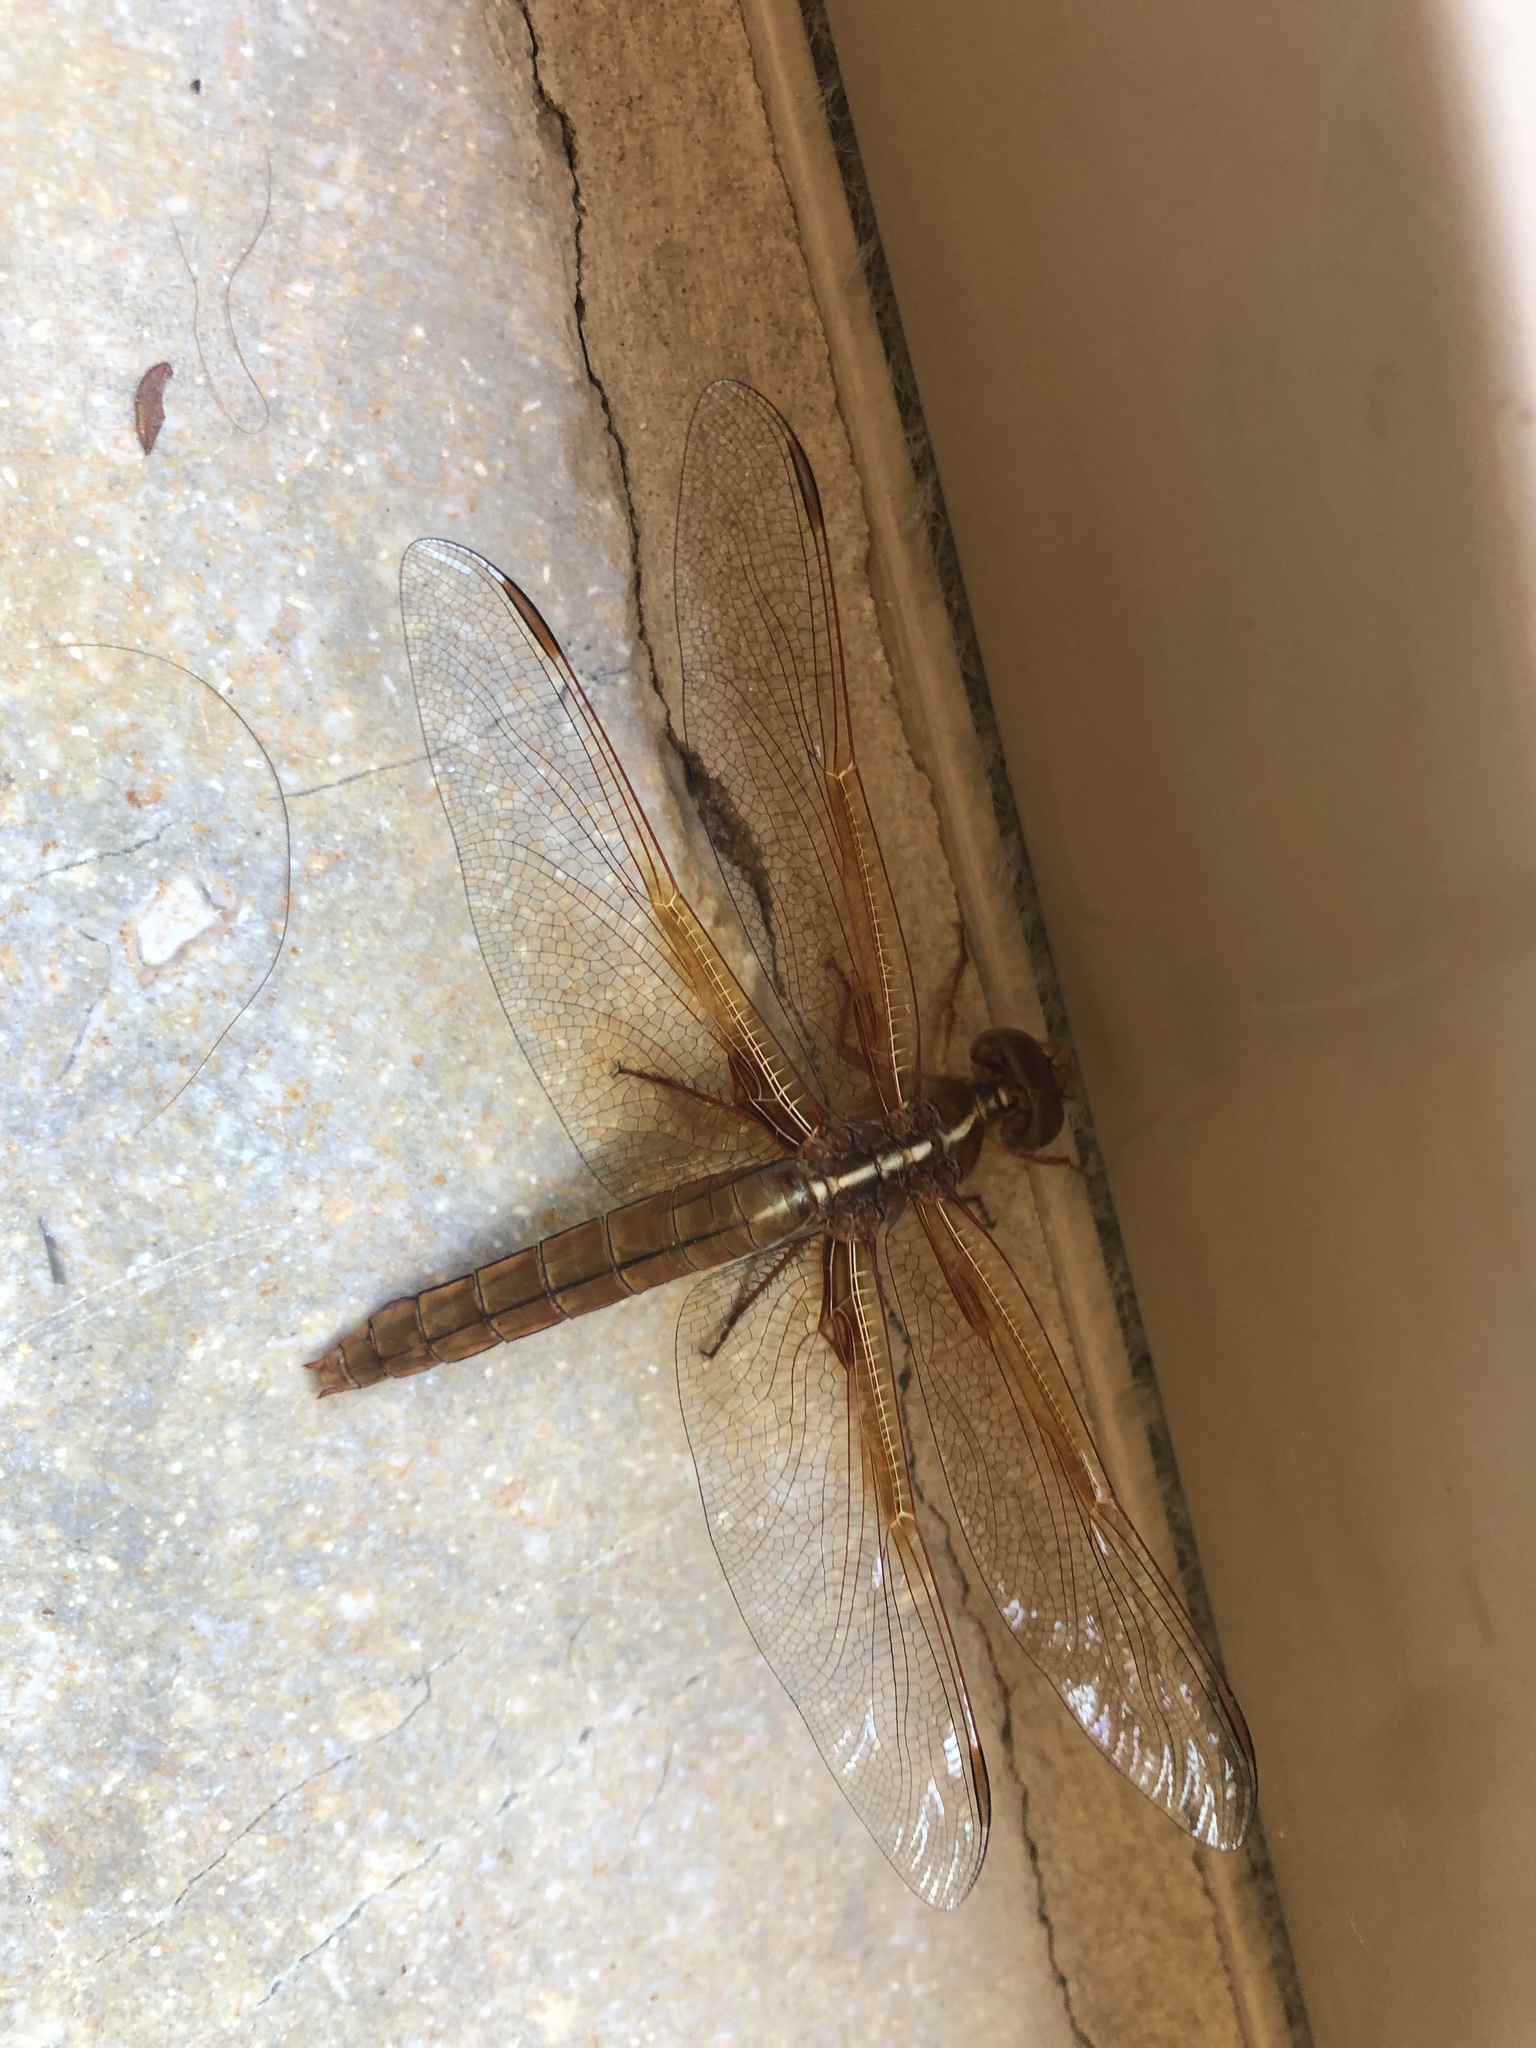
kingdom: Animalia
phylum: Arthropoda
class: Insecta
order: Odonata
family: Libellulidae
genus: Libellula
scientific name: Libellula saturata
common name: Flame skimmer
